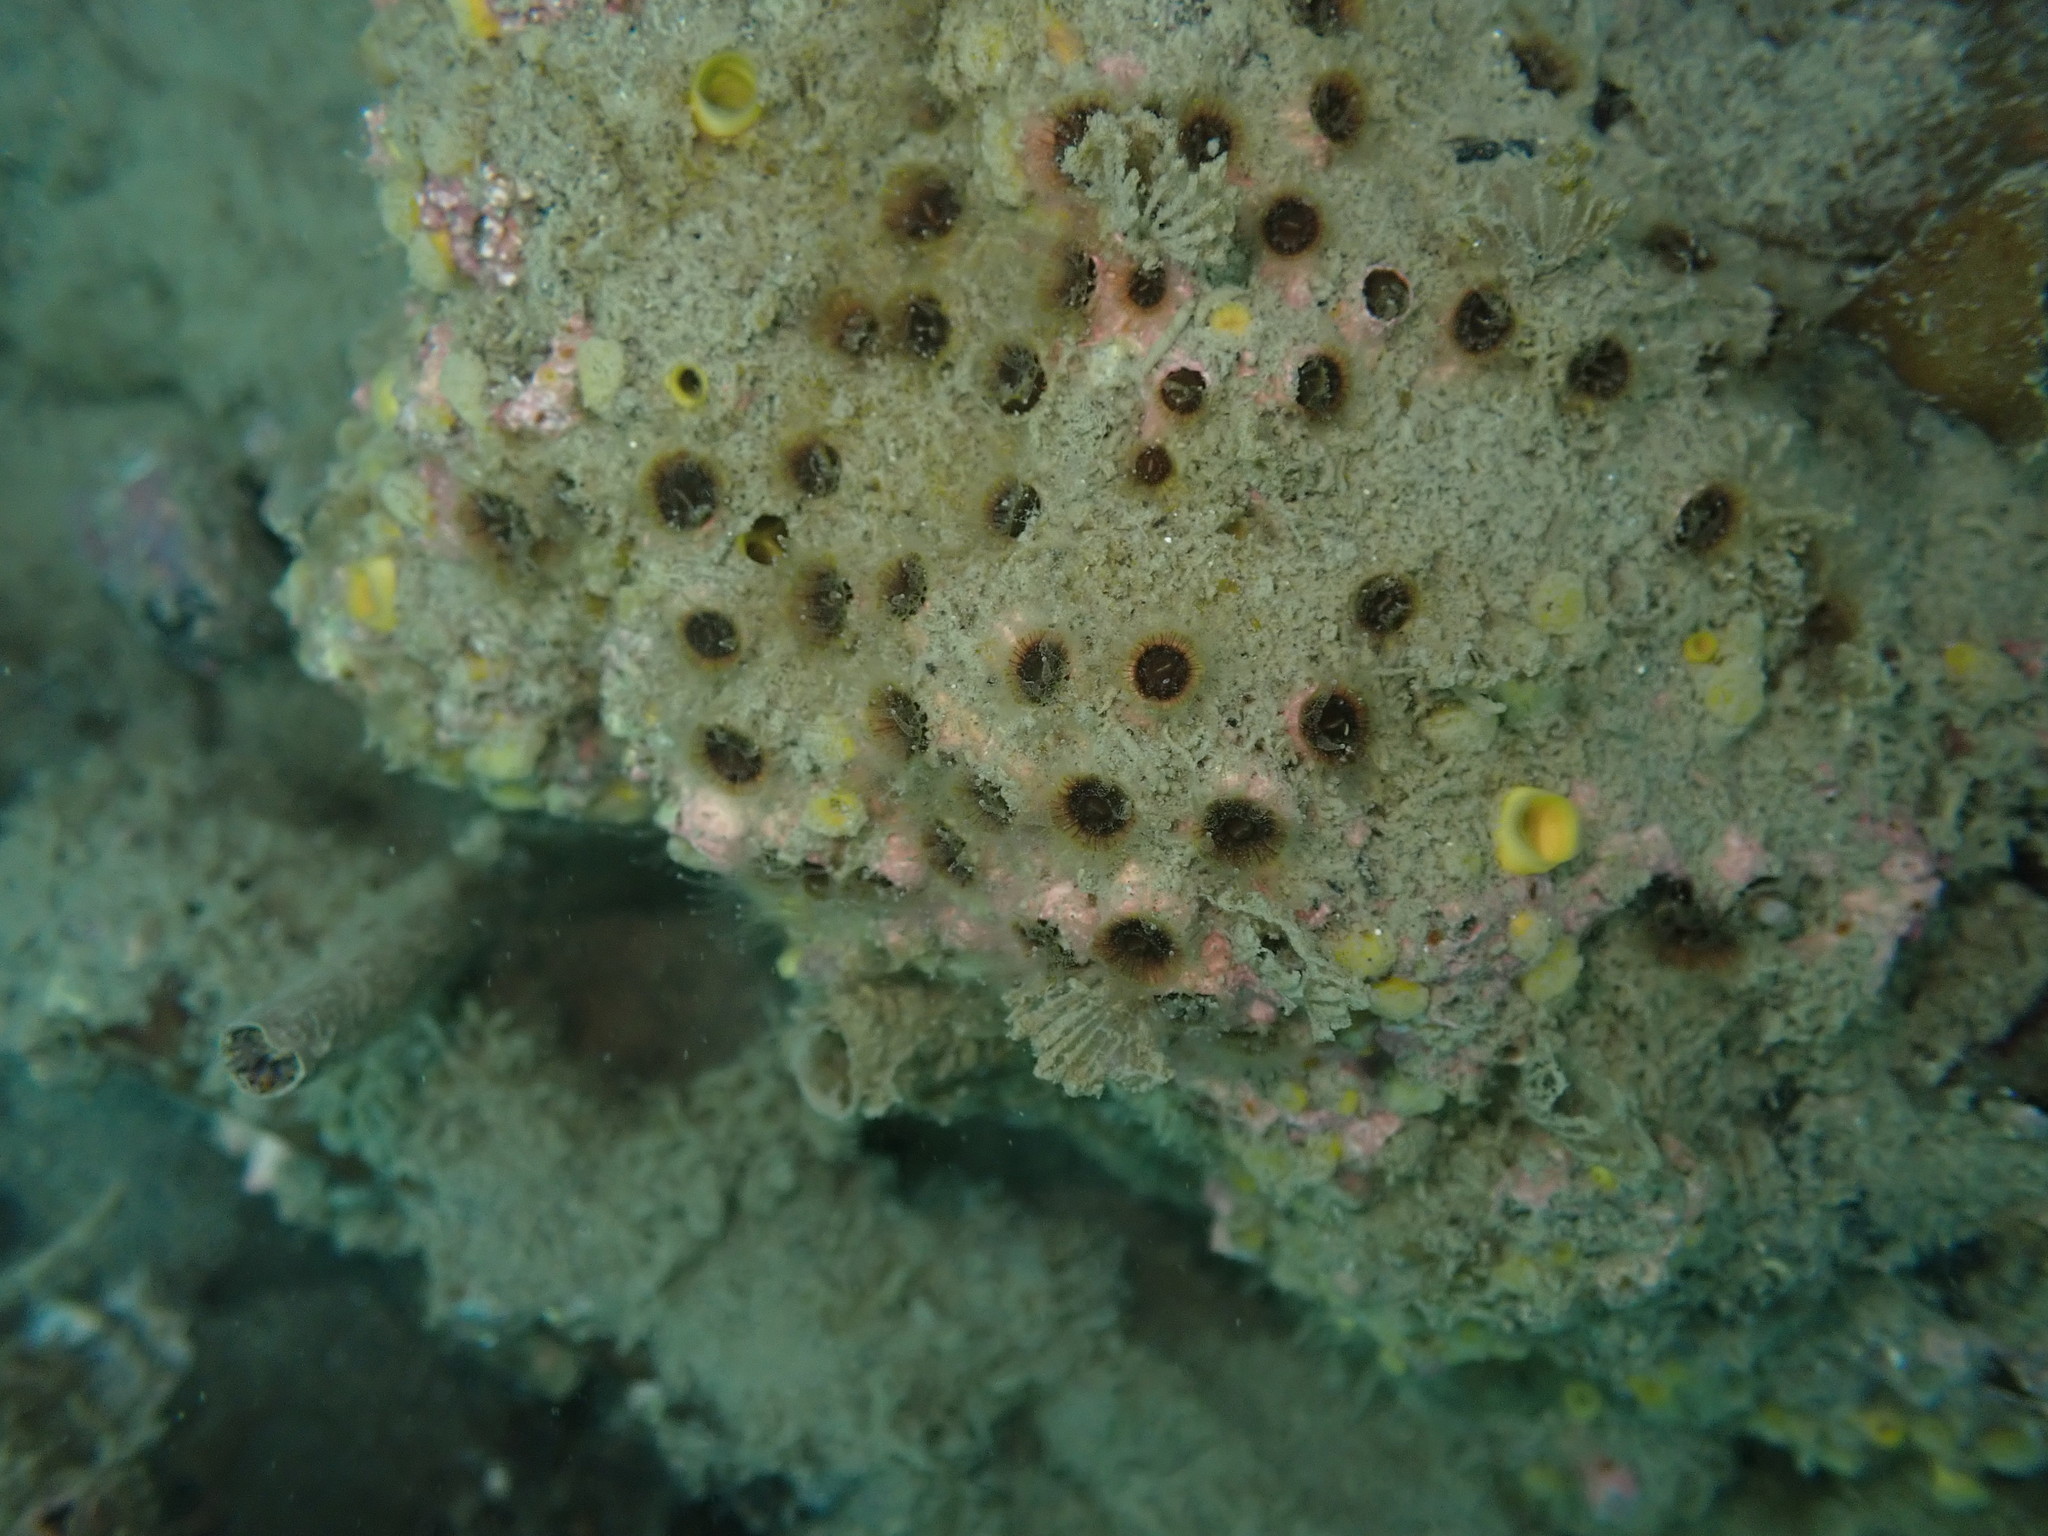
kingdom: Animalia
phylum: Cnidaria
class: Anthozoa
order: Scleractinia
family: Rhizangiidae
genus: Culicia
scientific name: Culicia rubeola
